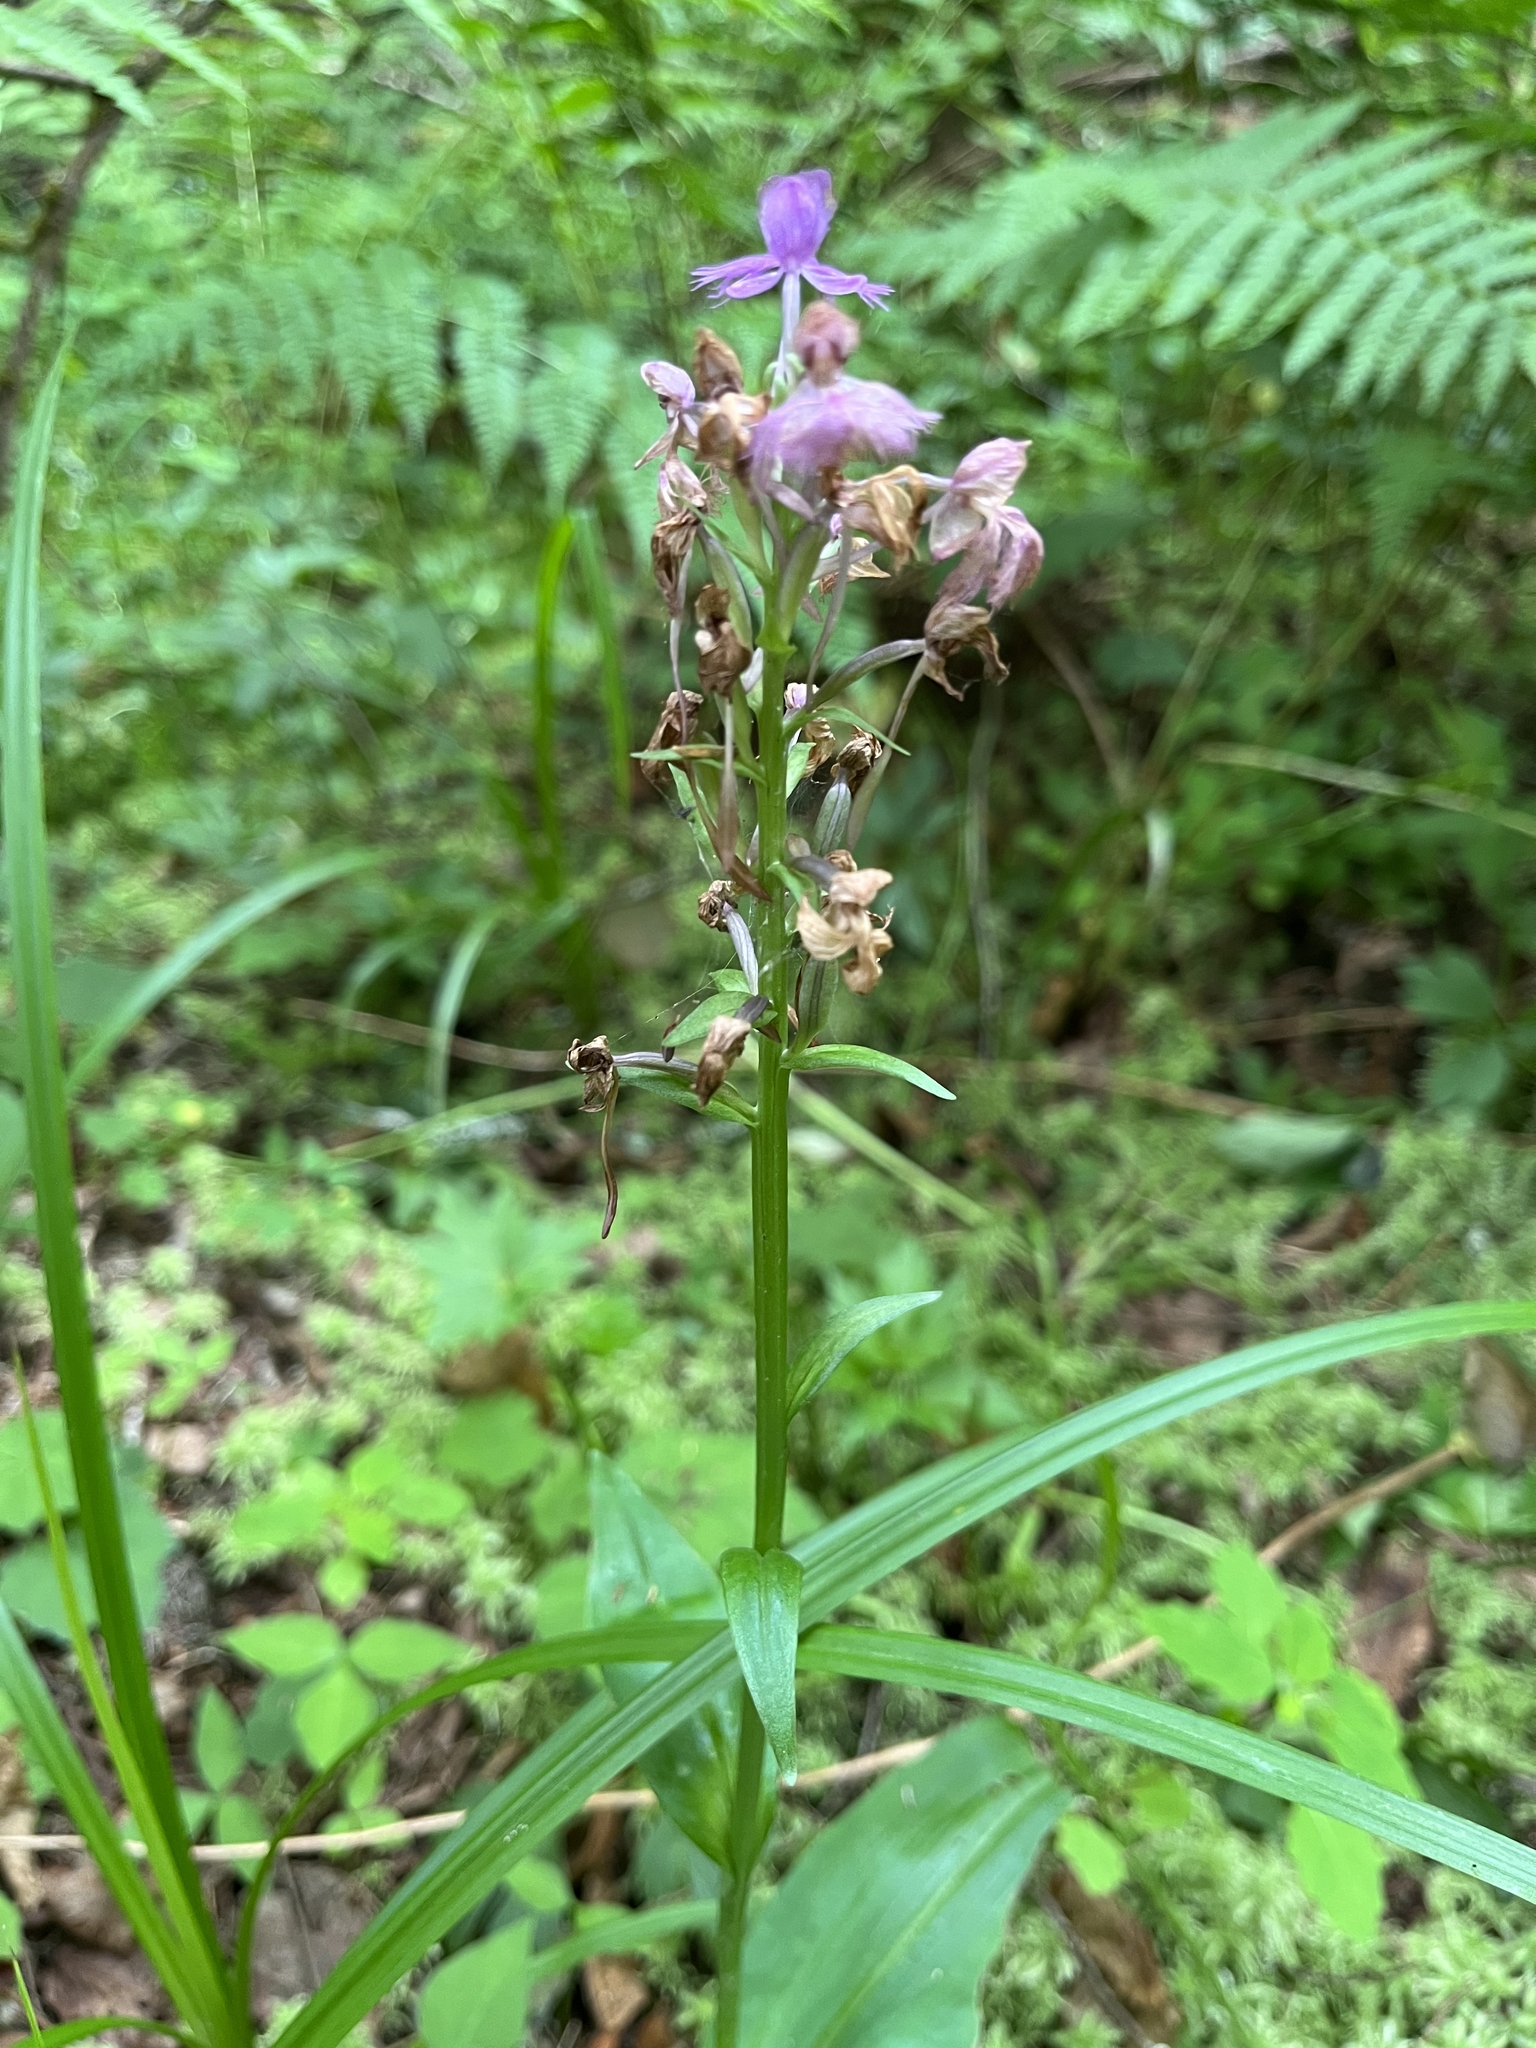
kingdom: Plantae
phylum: Tracheophyta
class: Liliopsida
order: Asparagales
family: Orchidaceae
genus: Platanthera
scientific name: Platanthera grandiflora
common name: Greater purple fringed orchid
